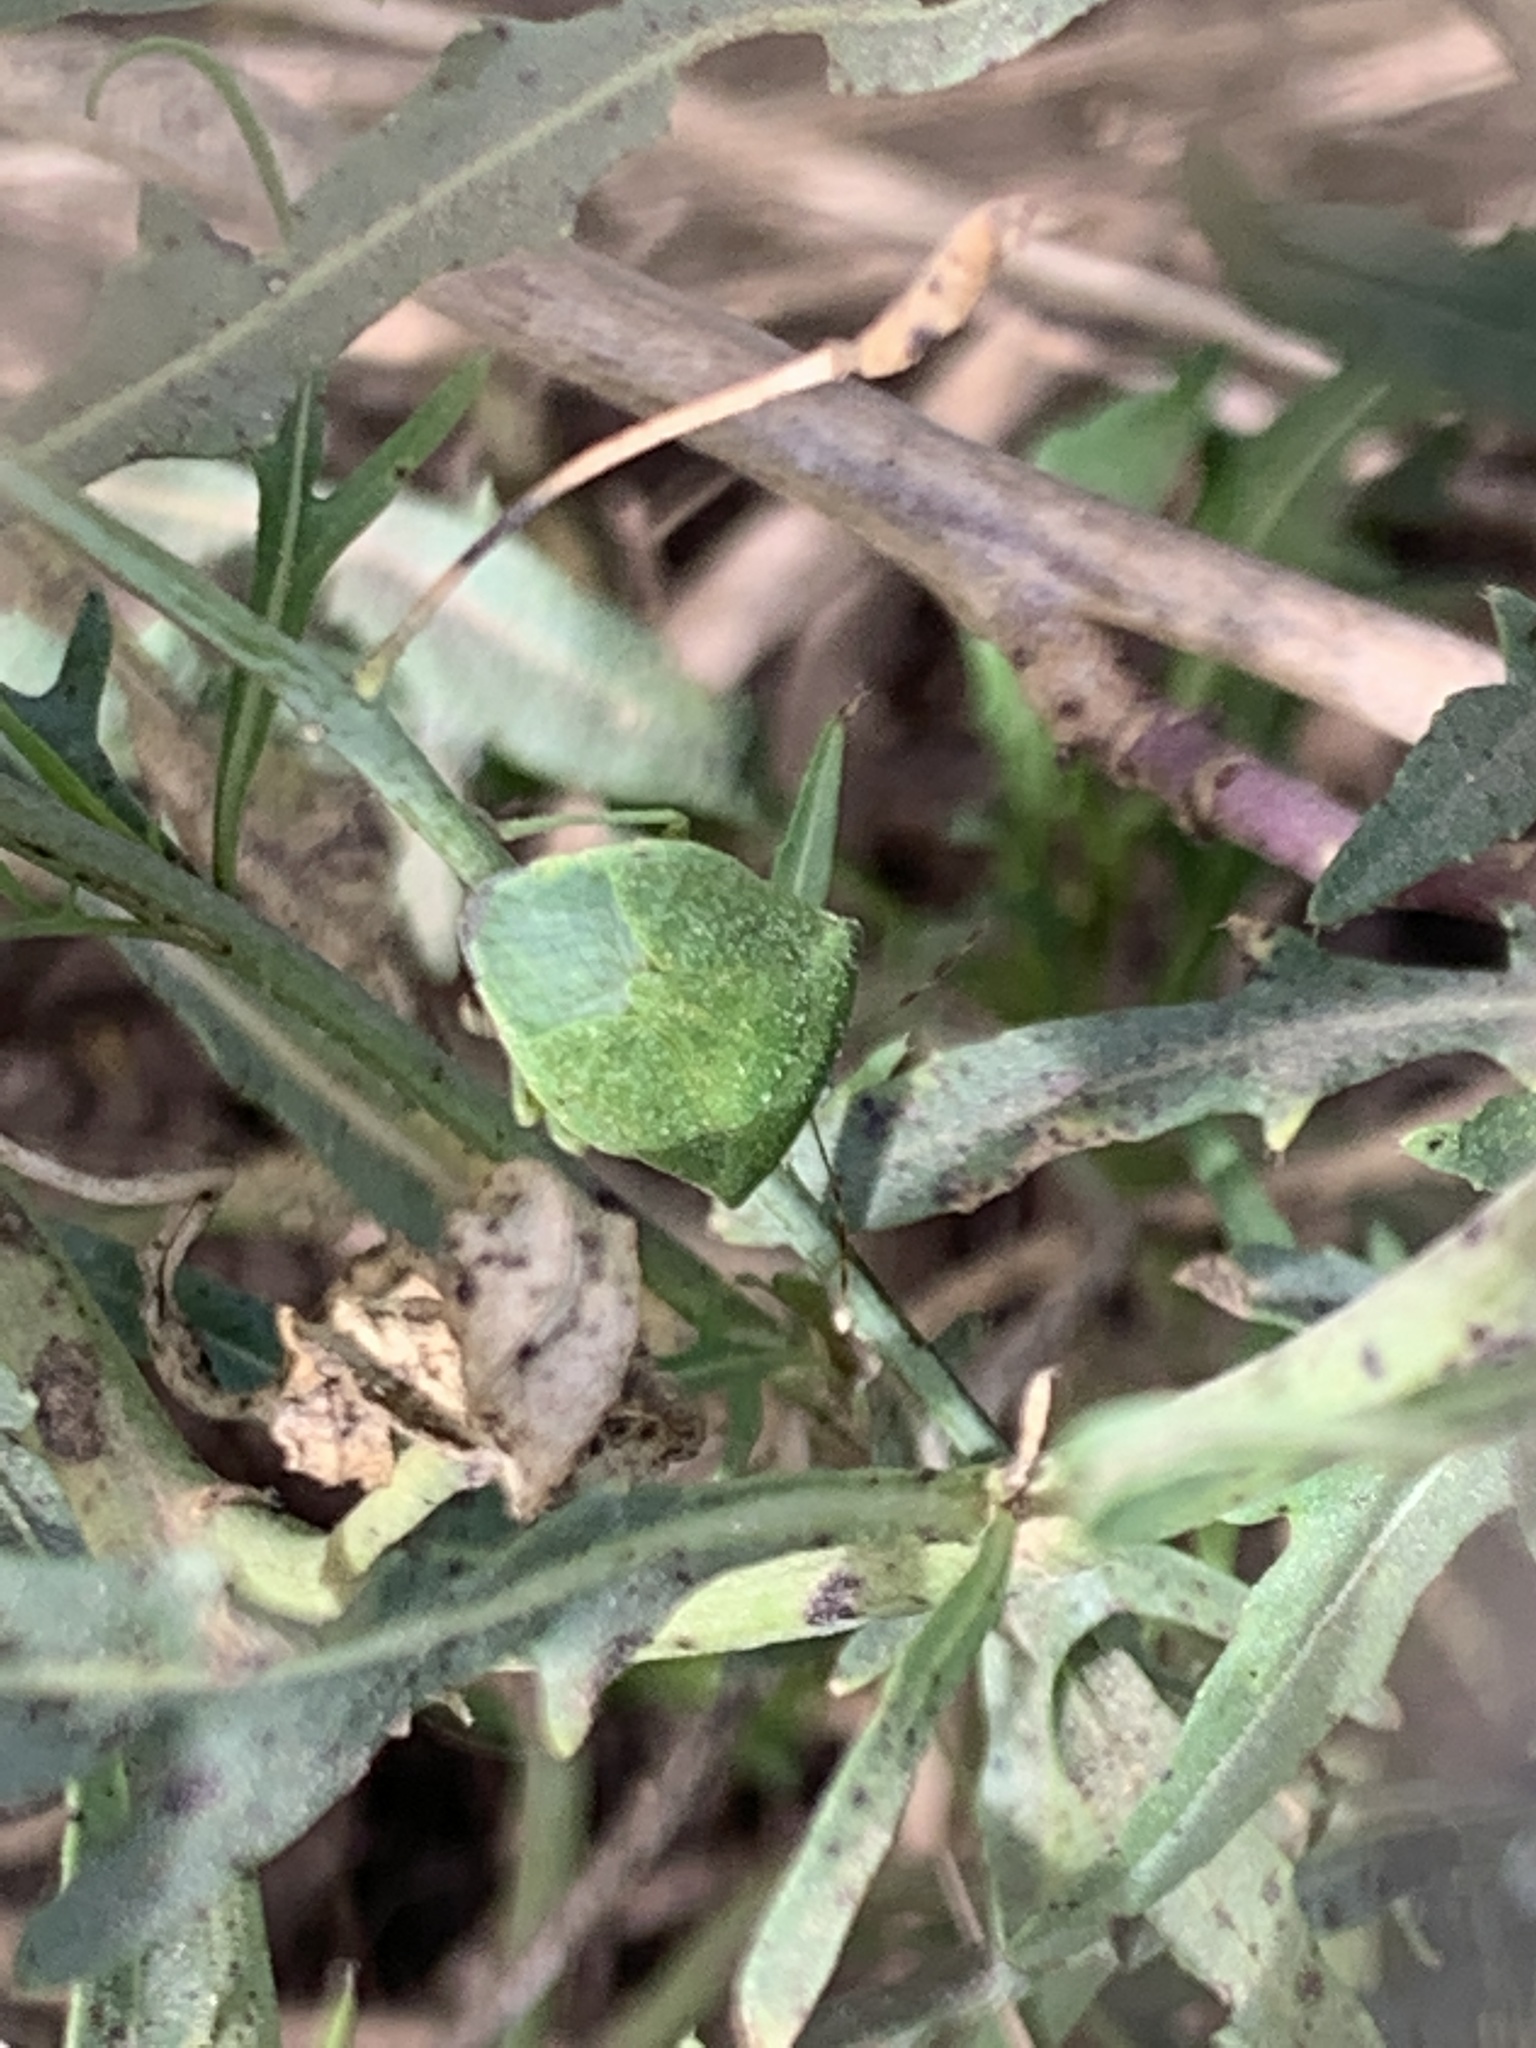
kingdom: Animalia
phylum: Arthropoda
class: Insecta
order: Hemiptera
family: Pentatomidae
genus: Nezara
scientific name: Nezara viridula
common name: Southern green stink bug
